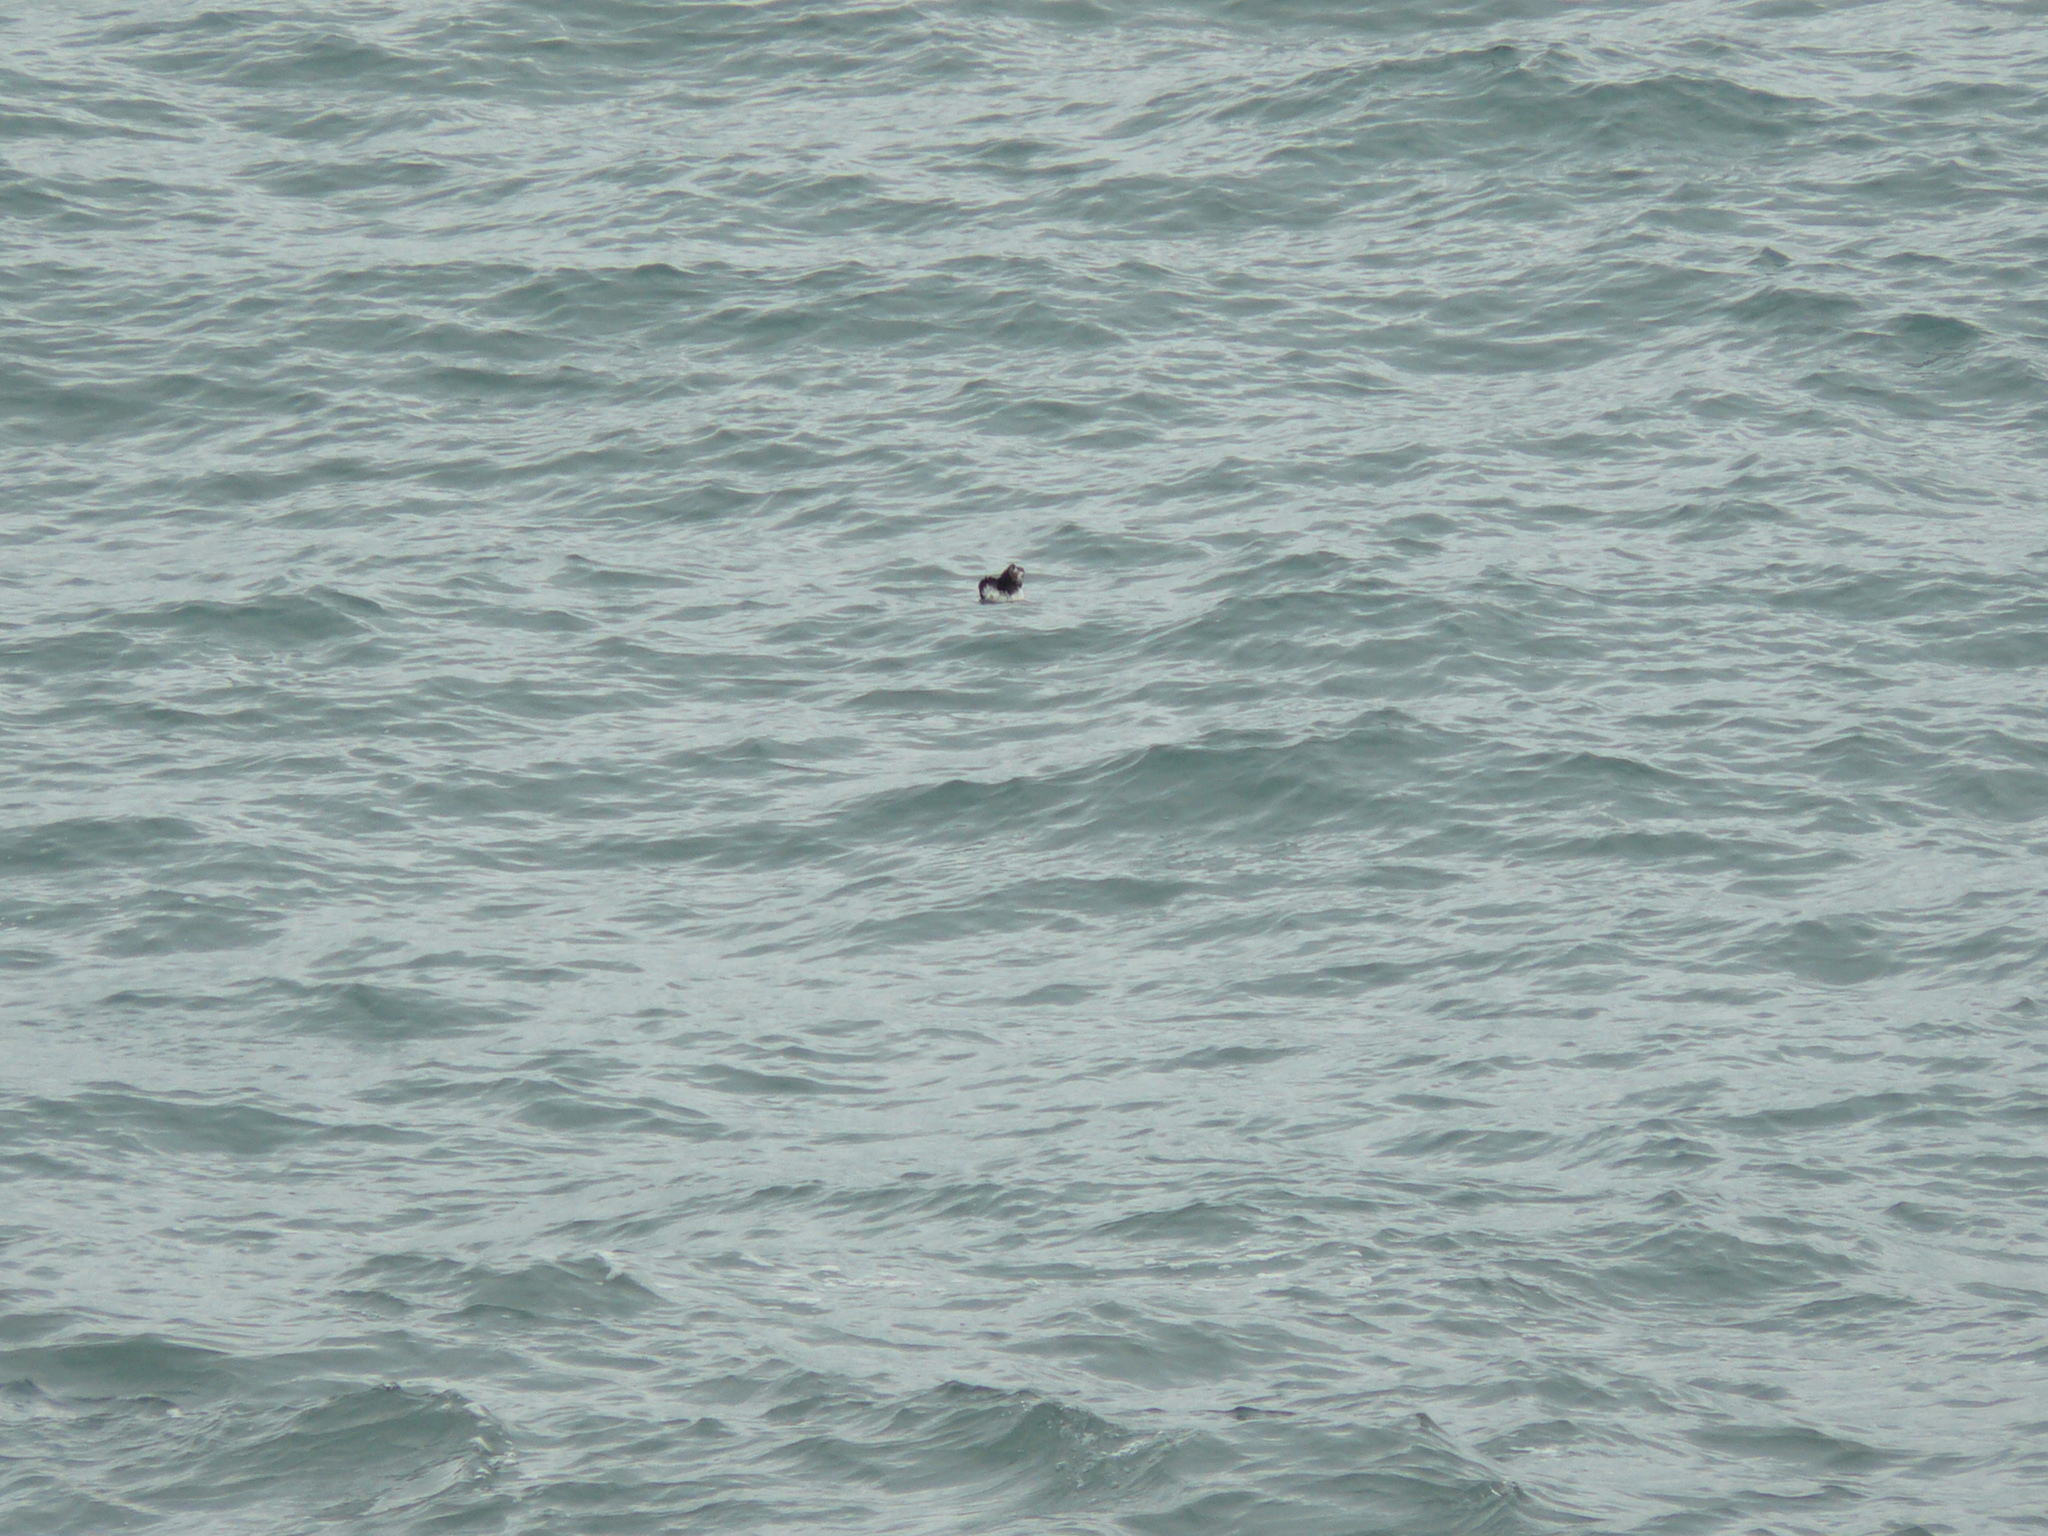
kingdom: Animalia
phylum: Chordata
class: Aves
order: Charadriiformes
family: Alcidae
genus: Fratercula
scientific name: Fratercula arctica
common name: Atlantic puffin
